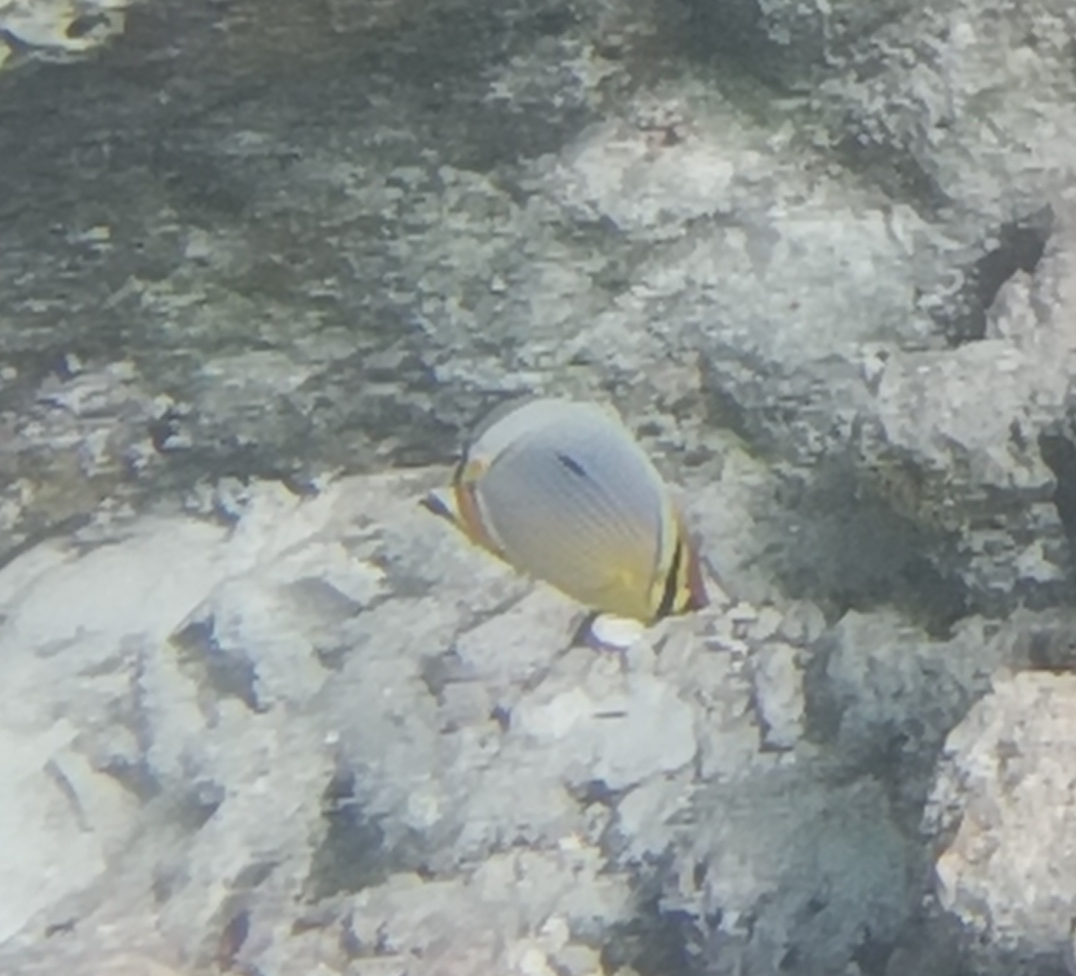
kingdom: Animalia
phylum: Chordata
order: Perciformes
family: Chaetodontidae
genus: Chaetodon
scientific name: Chaetodon trifasciatus
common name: Redfin butterflyfish
